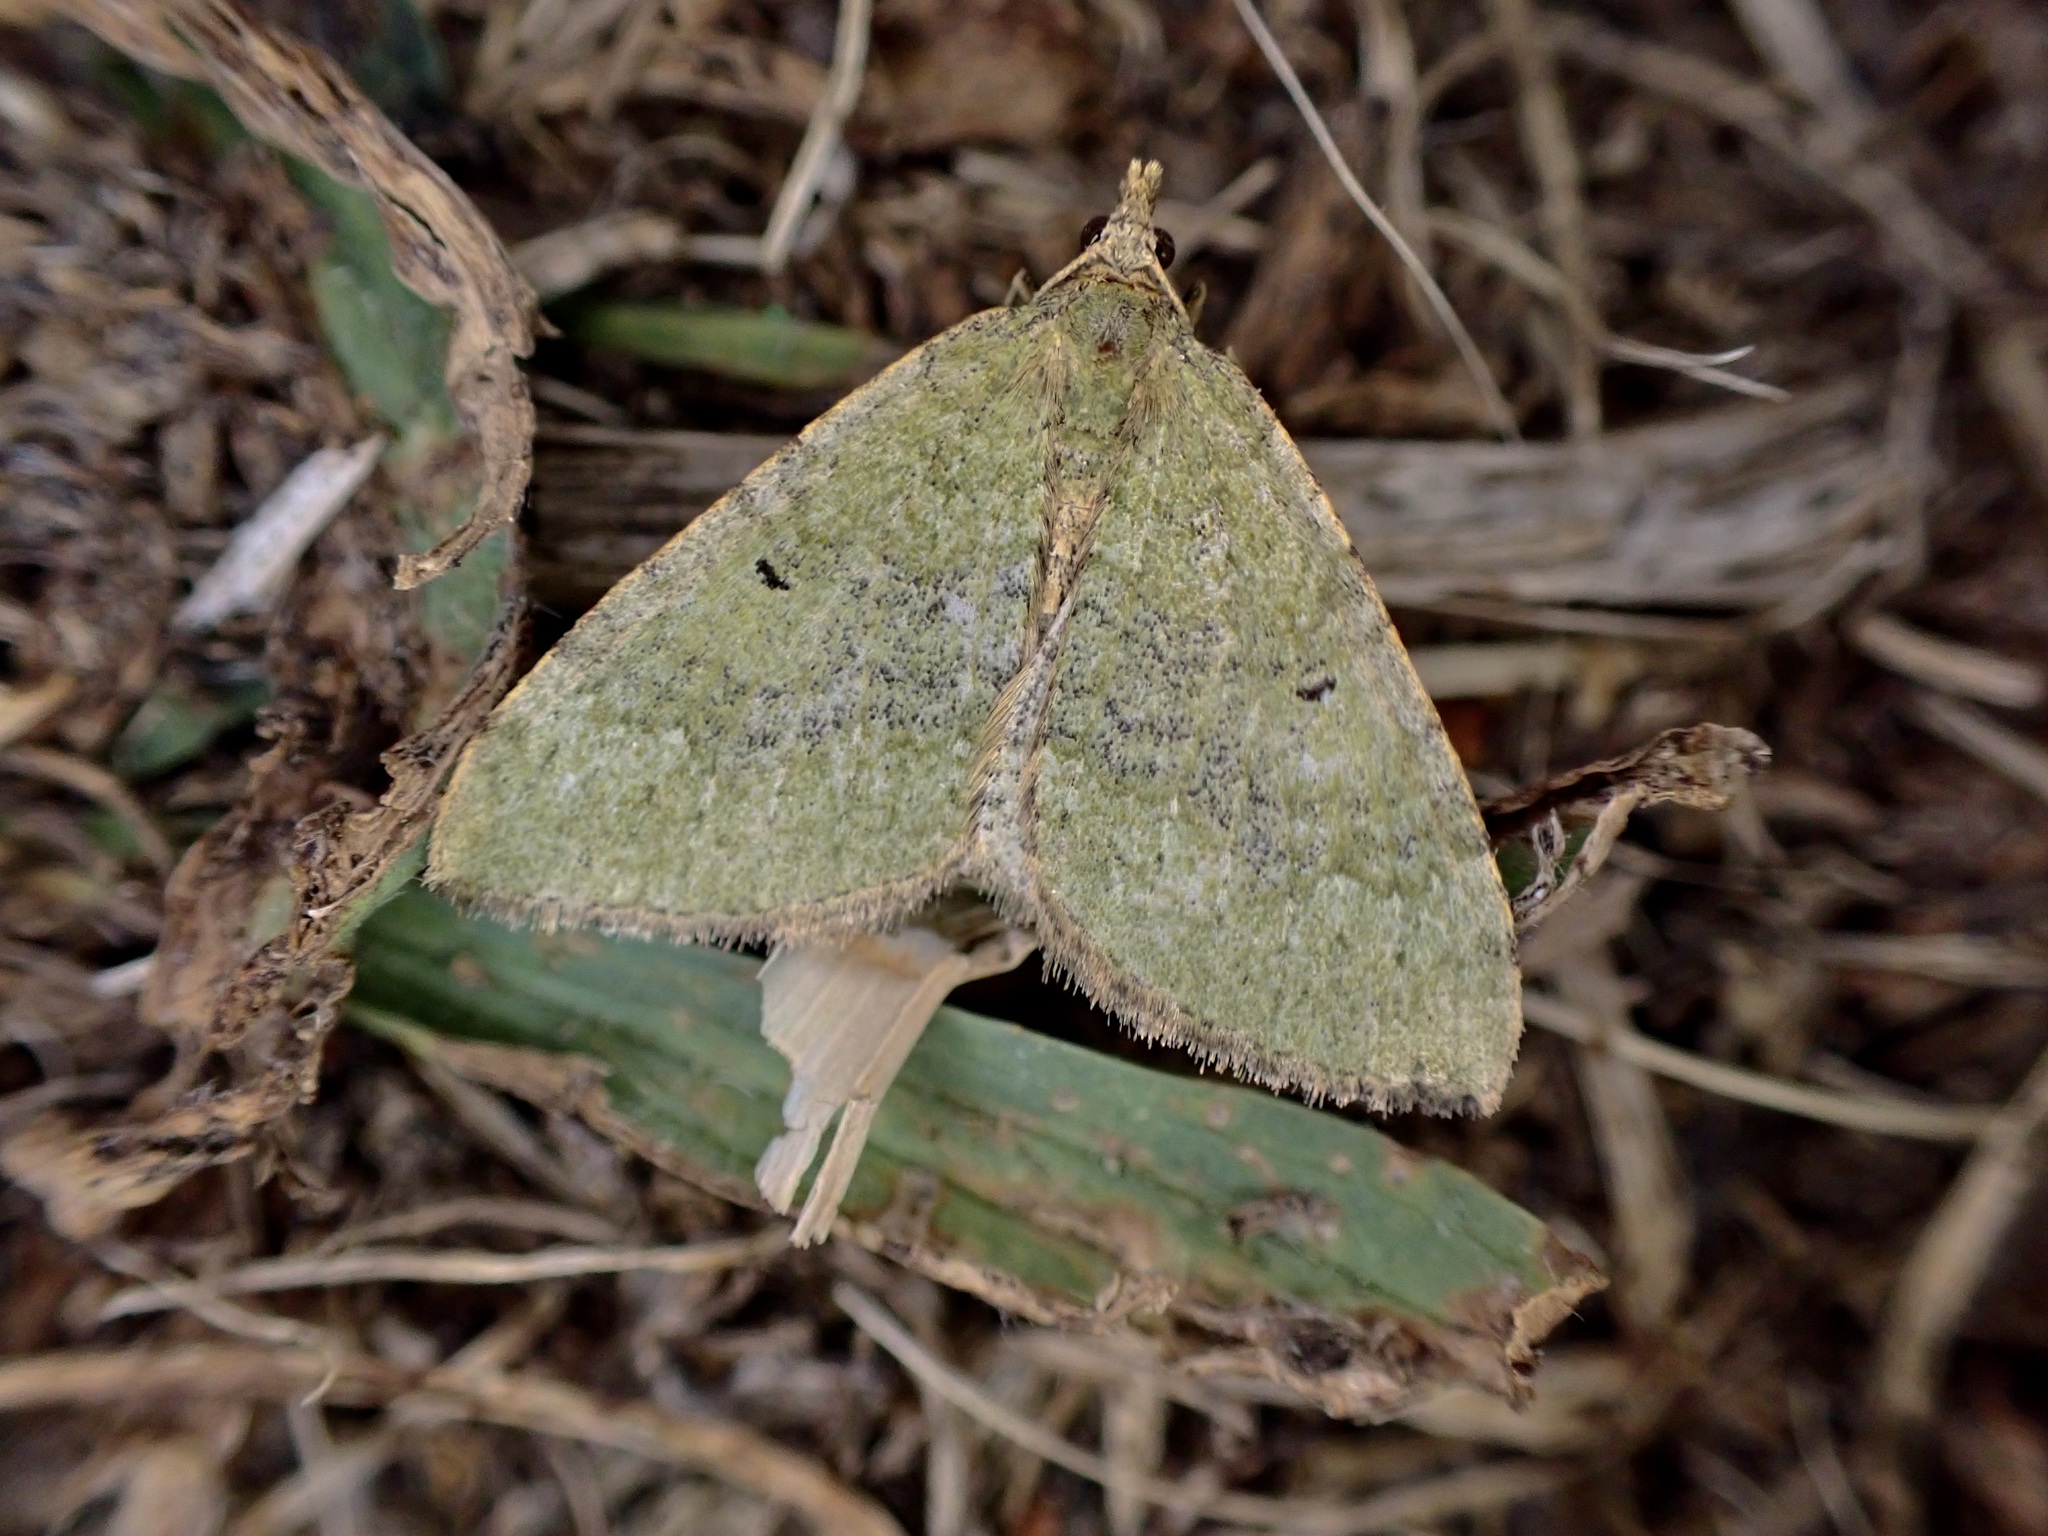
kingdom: Animalia
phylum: Arthropoda
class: Insecta
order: Lepidoptera
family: Geometridae
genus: Epyaxa
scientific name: Epyaxa rosearia
